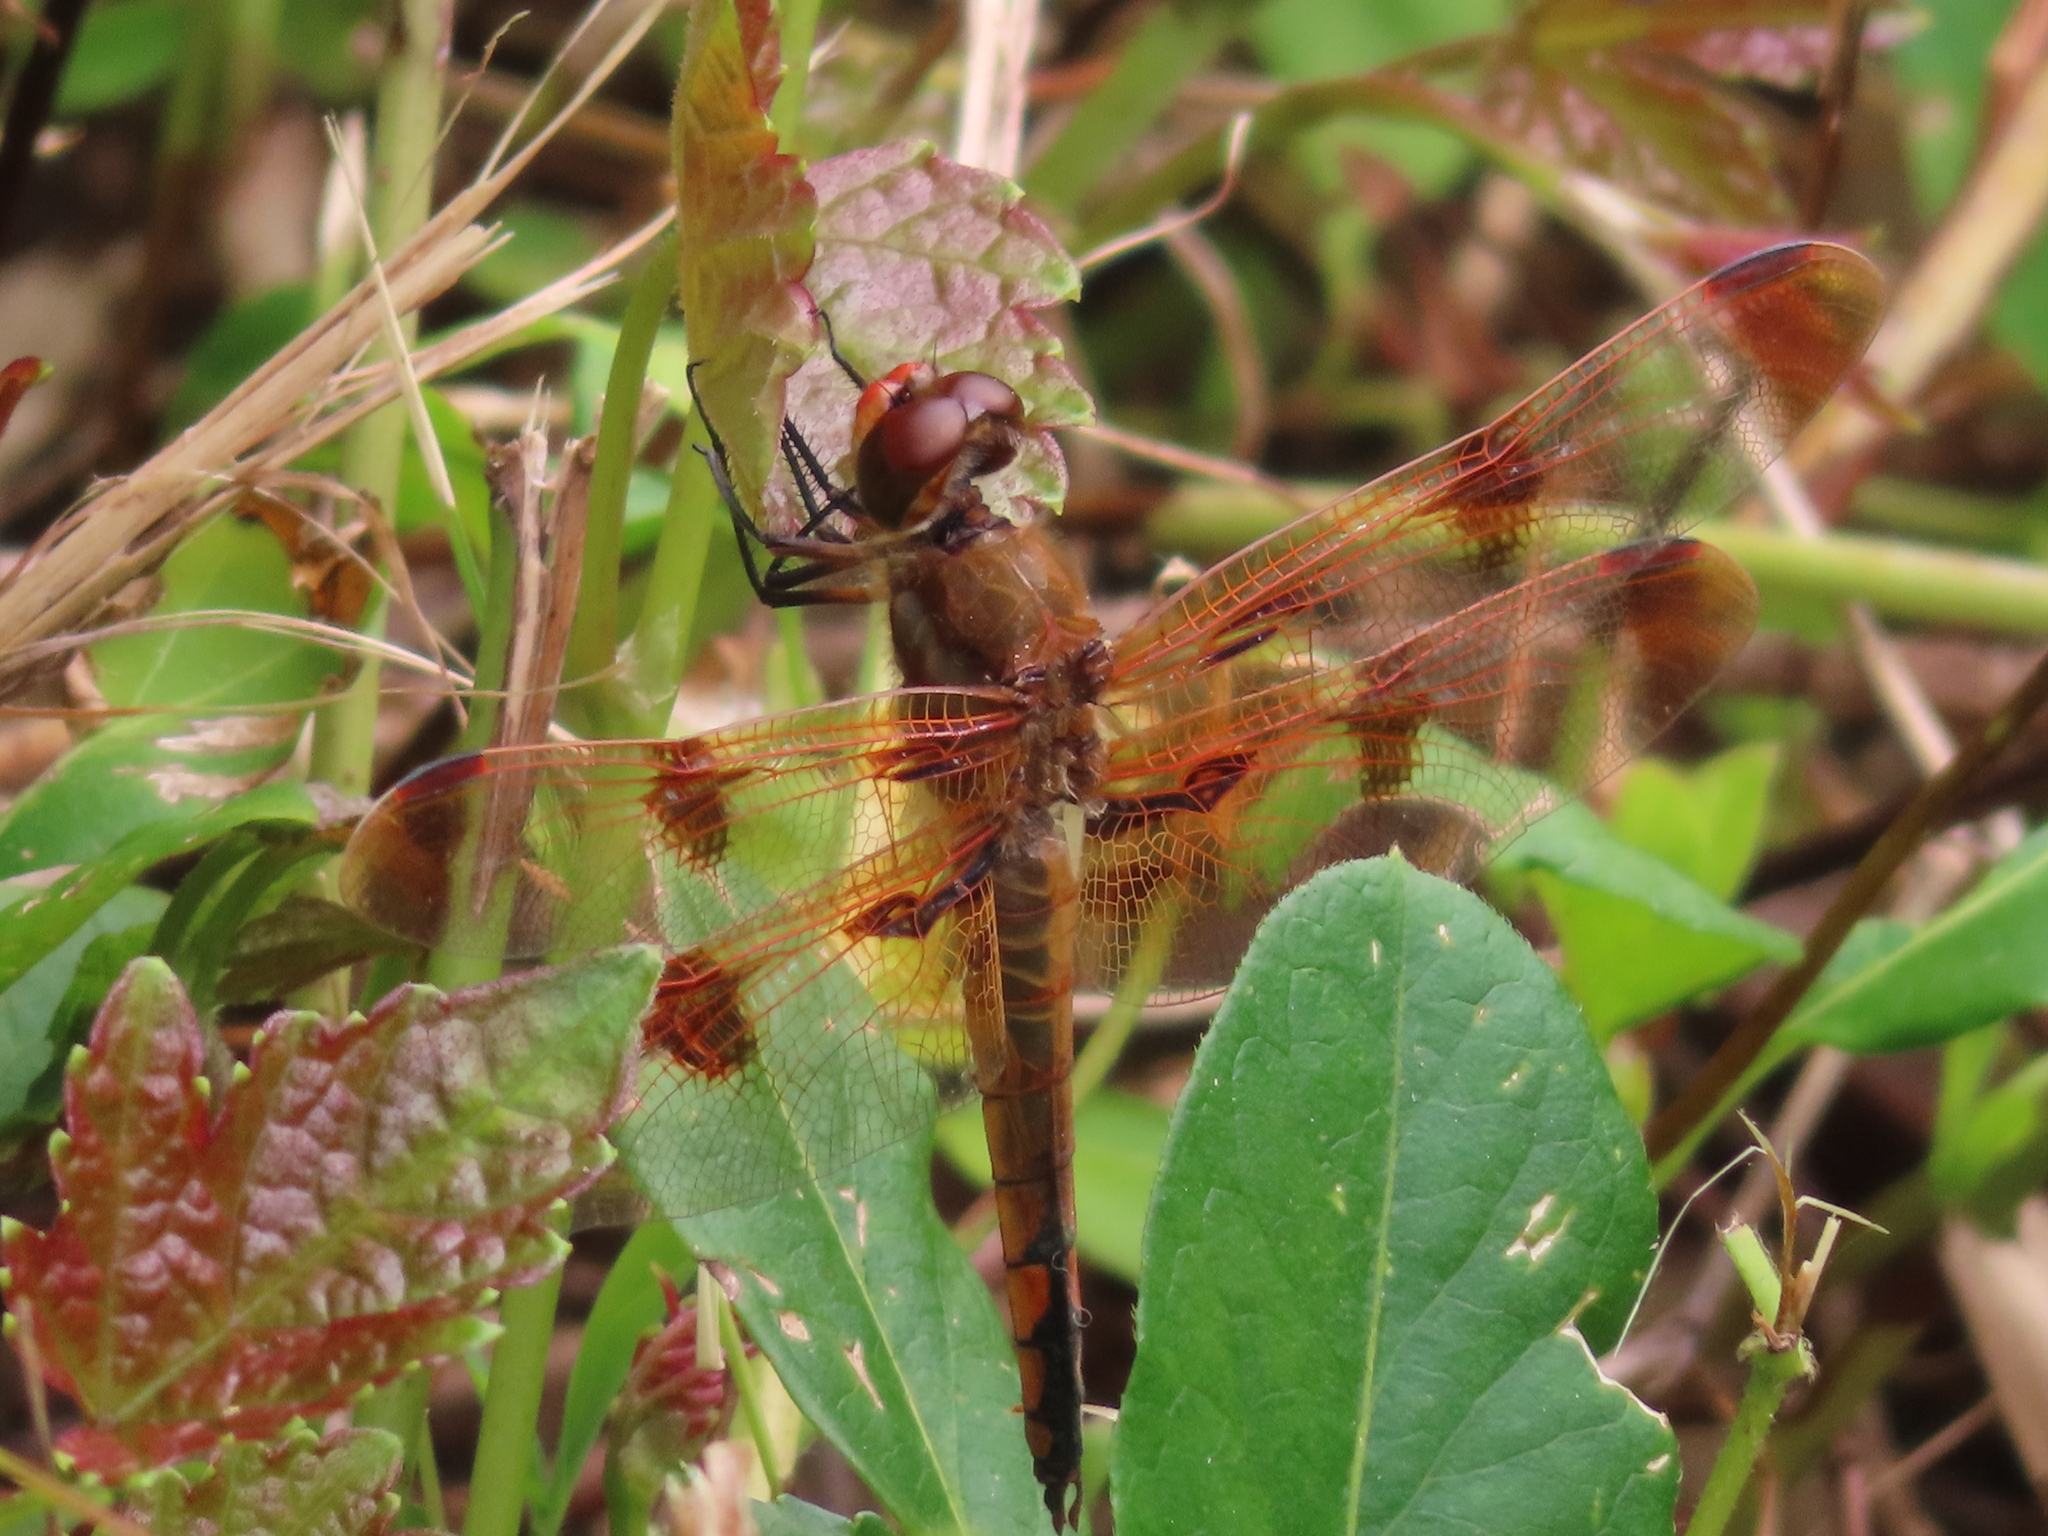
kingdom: Animalia
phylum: Arthropoda
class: Insecta
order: Odonata
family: Libellulidae
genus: Libellula
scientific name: Libellula semifasciata
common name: Painted skimmer
